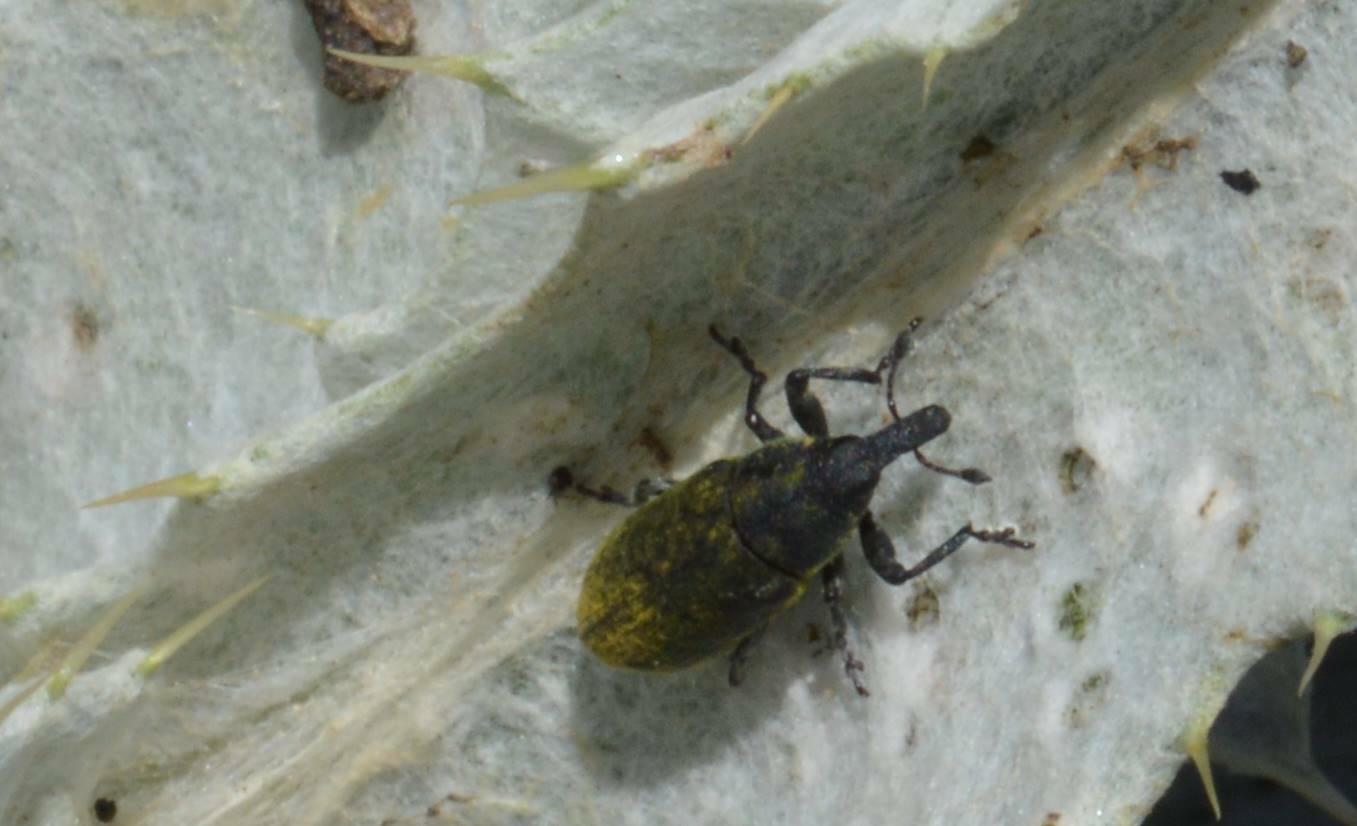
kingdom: Animalia
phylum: Arthropoda
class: Insecta
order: Coleoptera
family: Curculionidae
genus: Larinus
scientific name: Larinus carlinae
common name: Weevil
